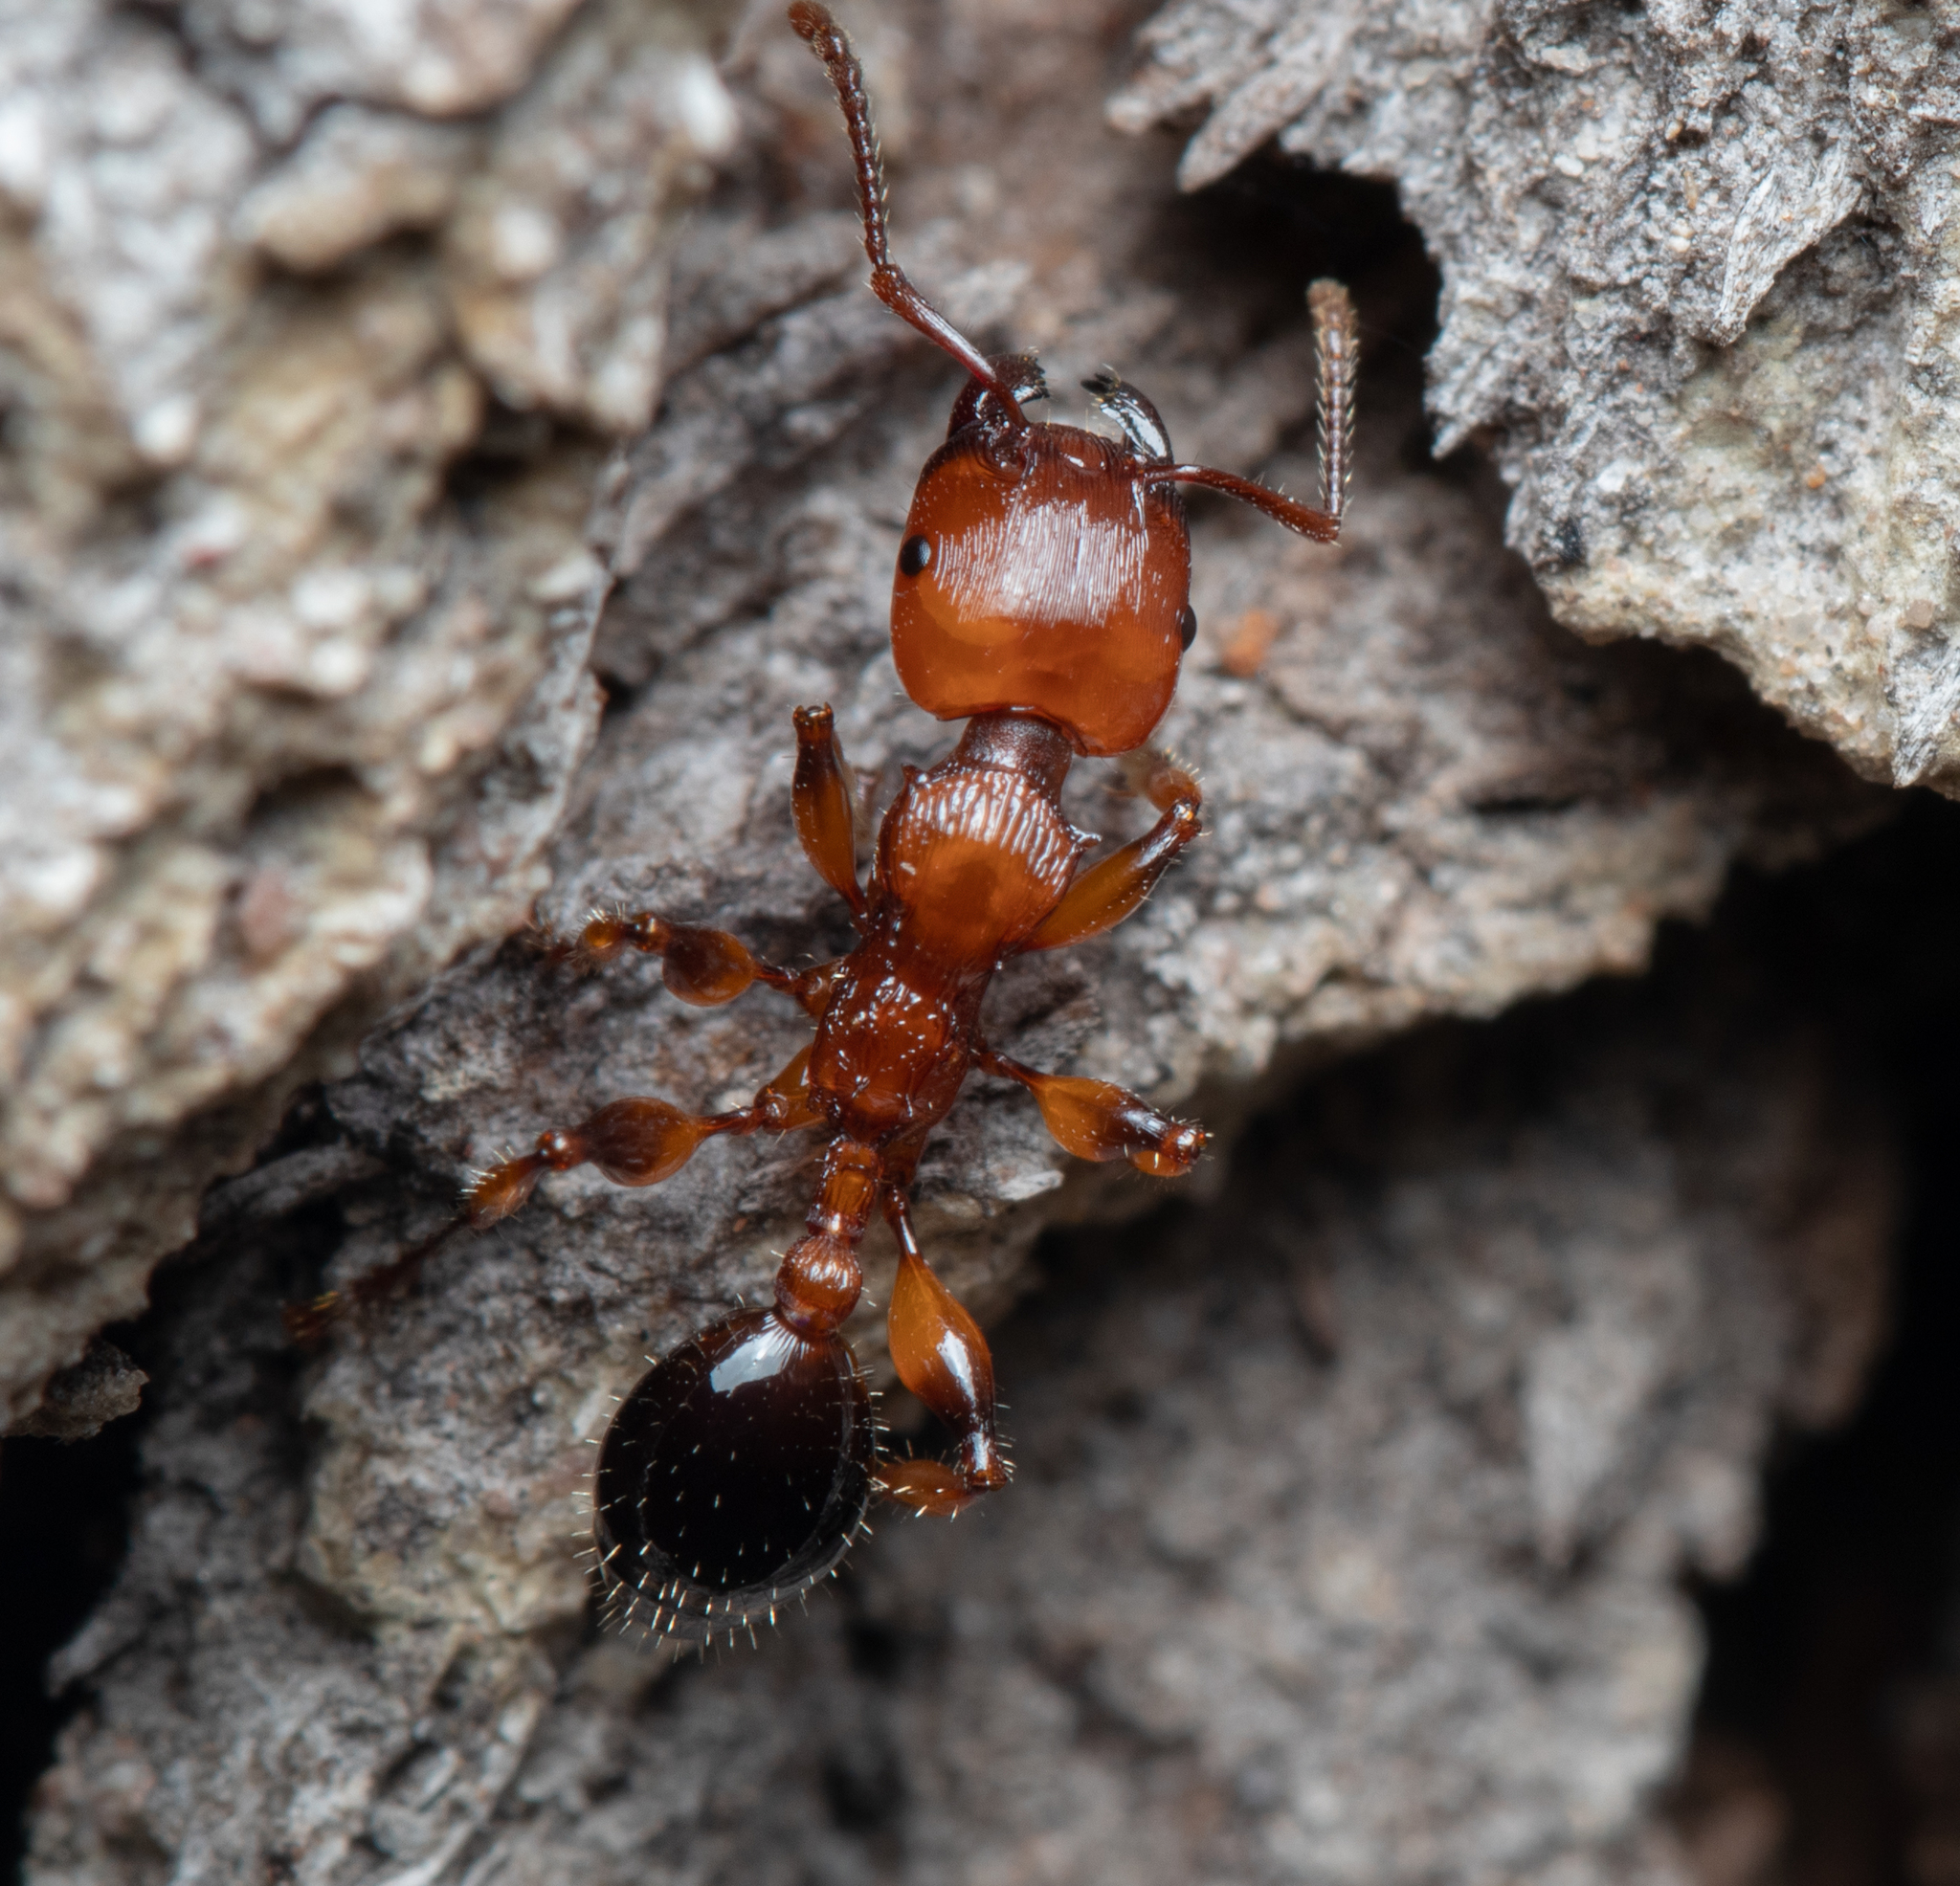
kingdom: Animalia
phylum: Arthropoda
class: Insecta
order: Hymenoptera
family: Formicidae
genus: Podomyrma
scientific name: Podomyrma gratiosa
